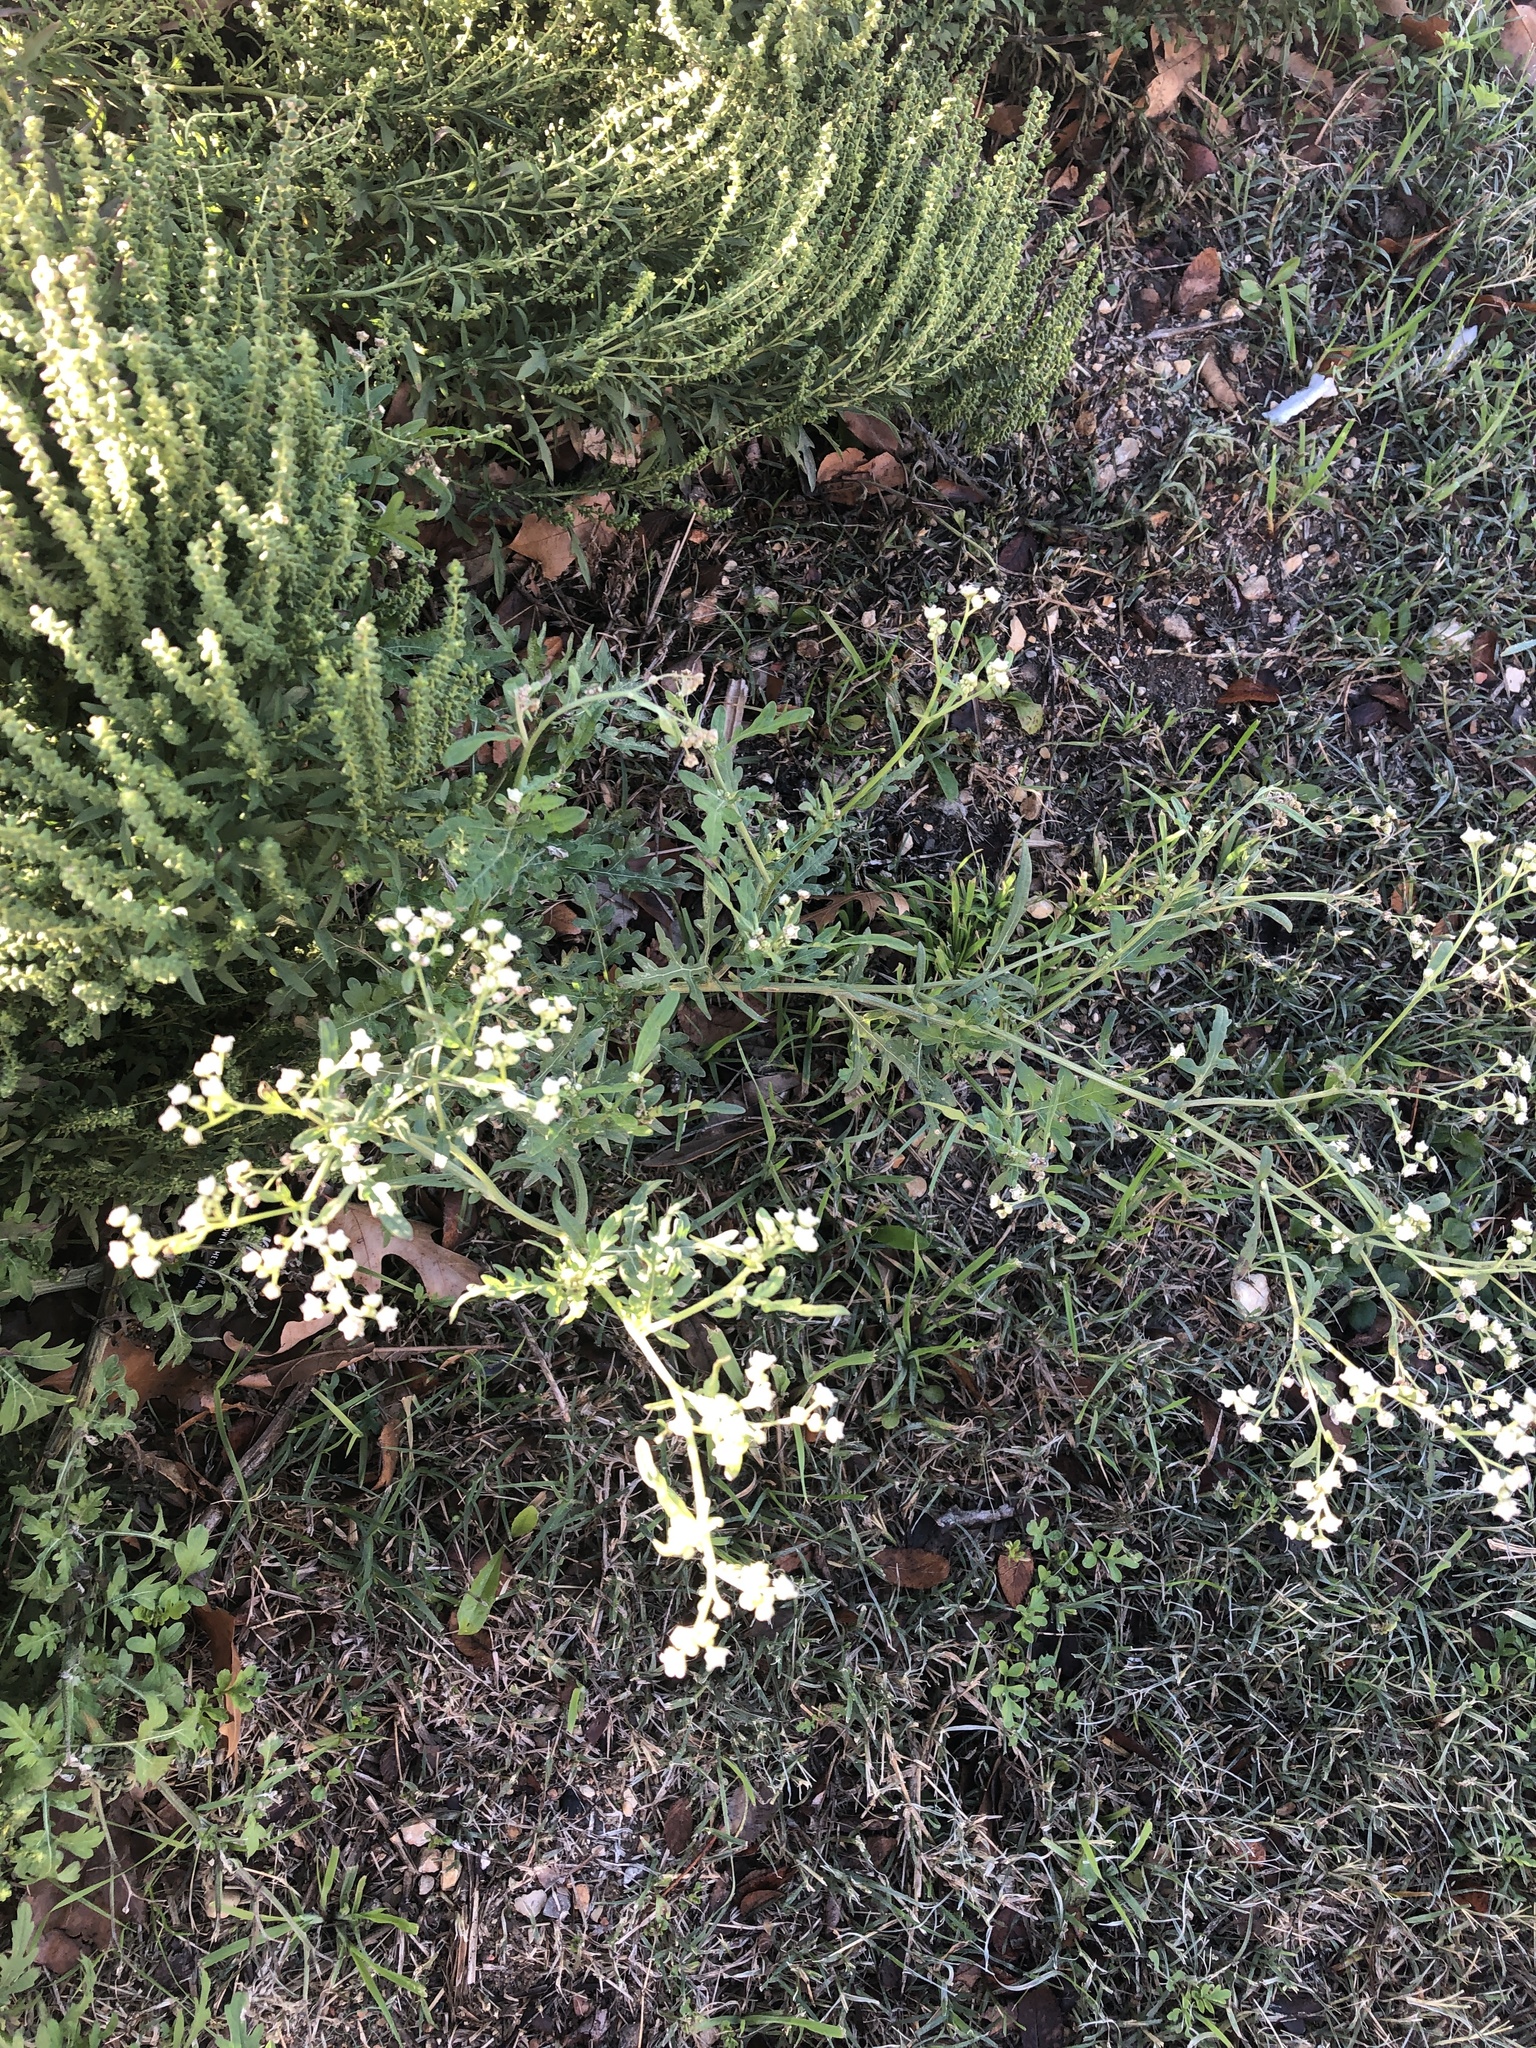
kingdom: Plantae
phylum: Tracheophyta
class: Magnoliopsida
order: Asterales
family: Asteraceae
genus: Parthenium
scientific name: Parthenium hysterophorus
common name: Santa maria feverfew
